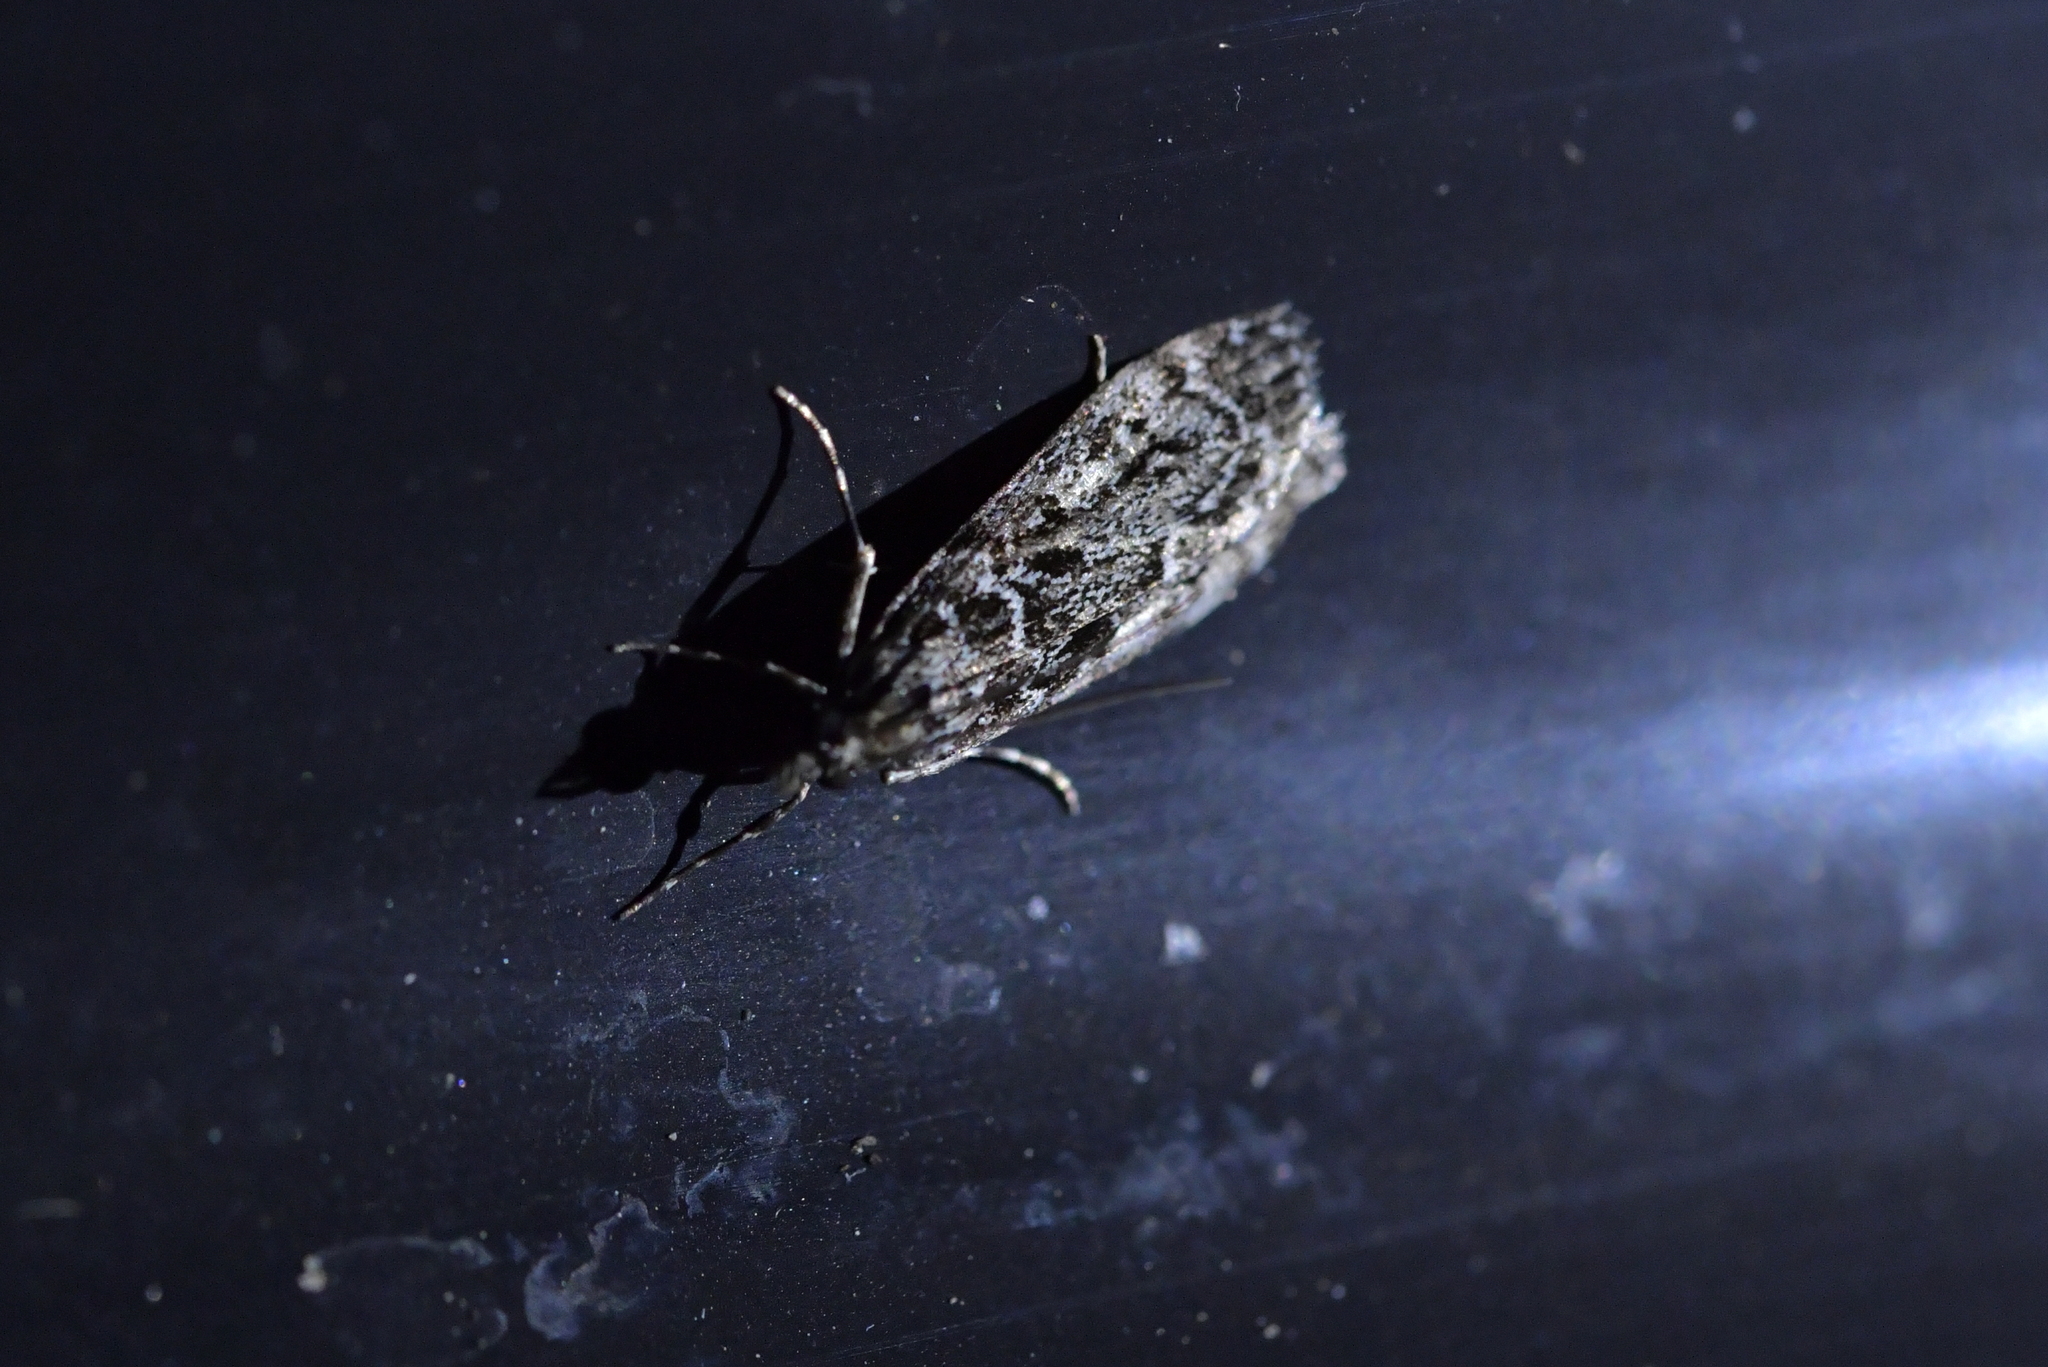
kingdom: Animalia
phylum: Arthropoda
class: Insecta
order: Lepidoptera
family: Crambidae
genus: Eudonia
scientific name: Eudonia philerga
